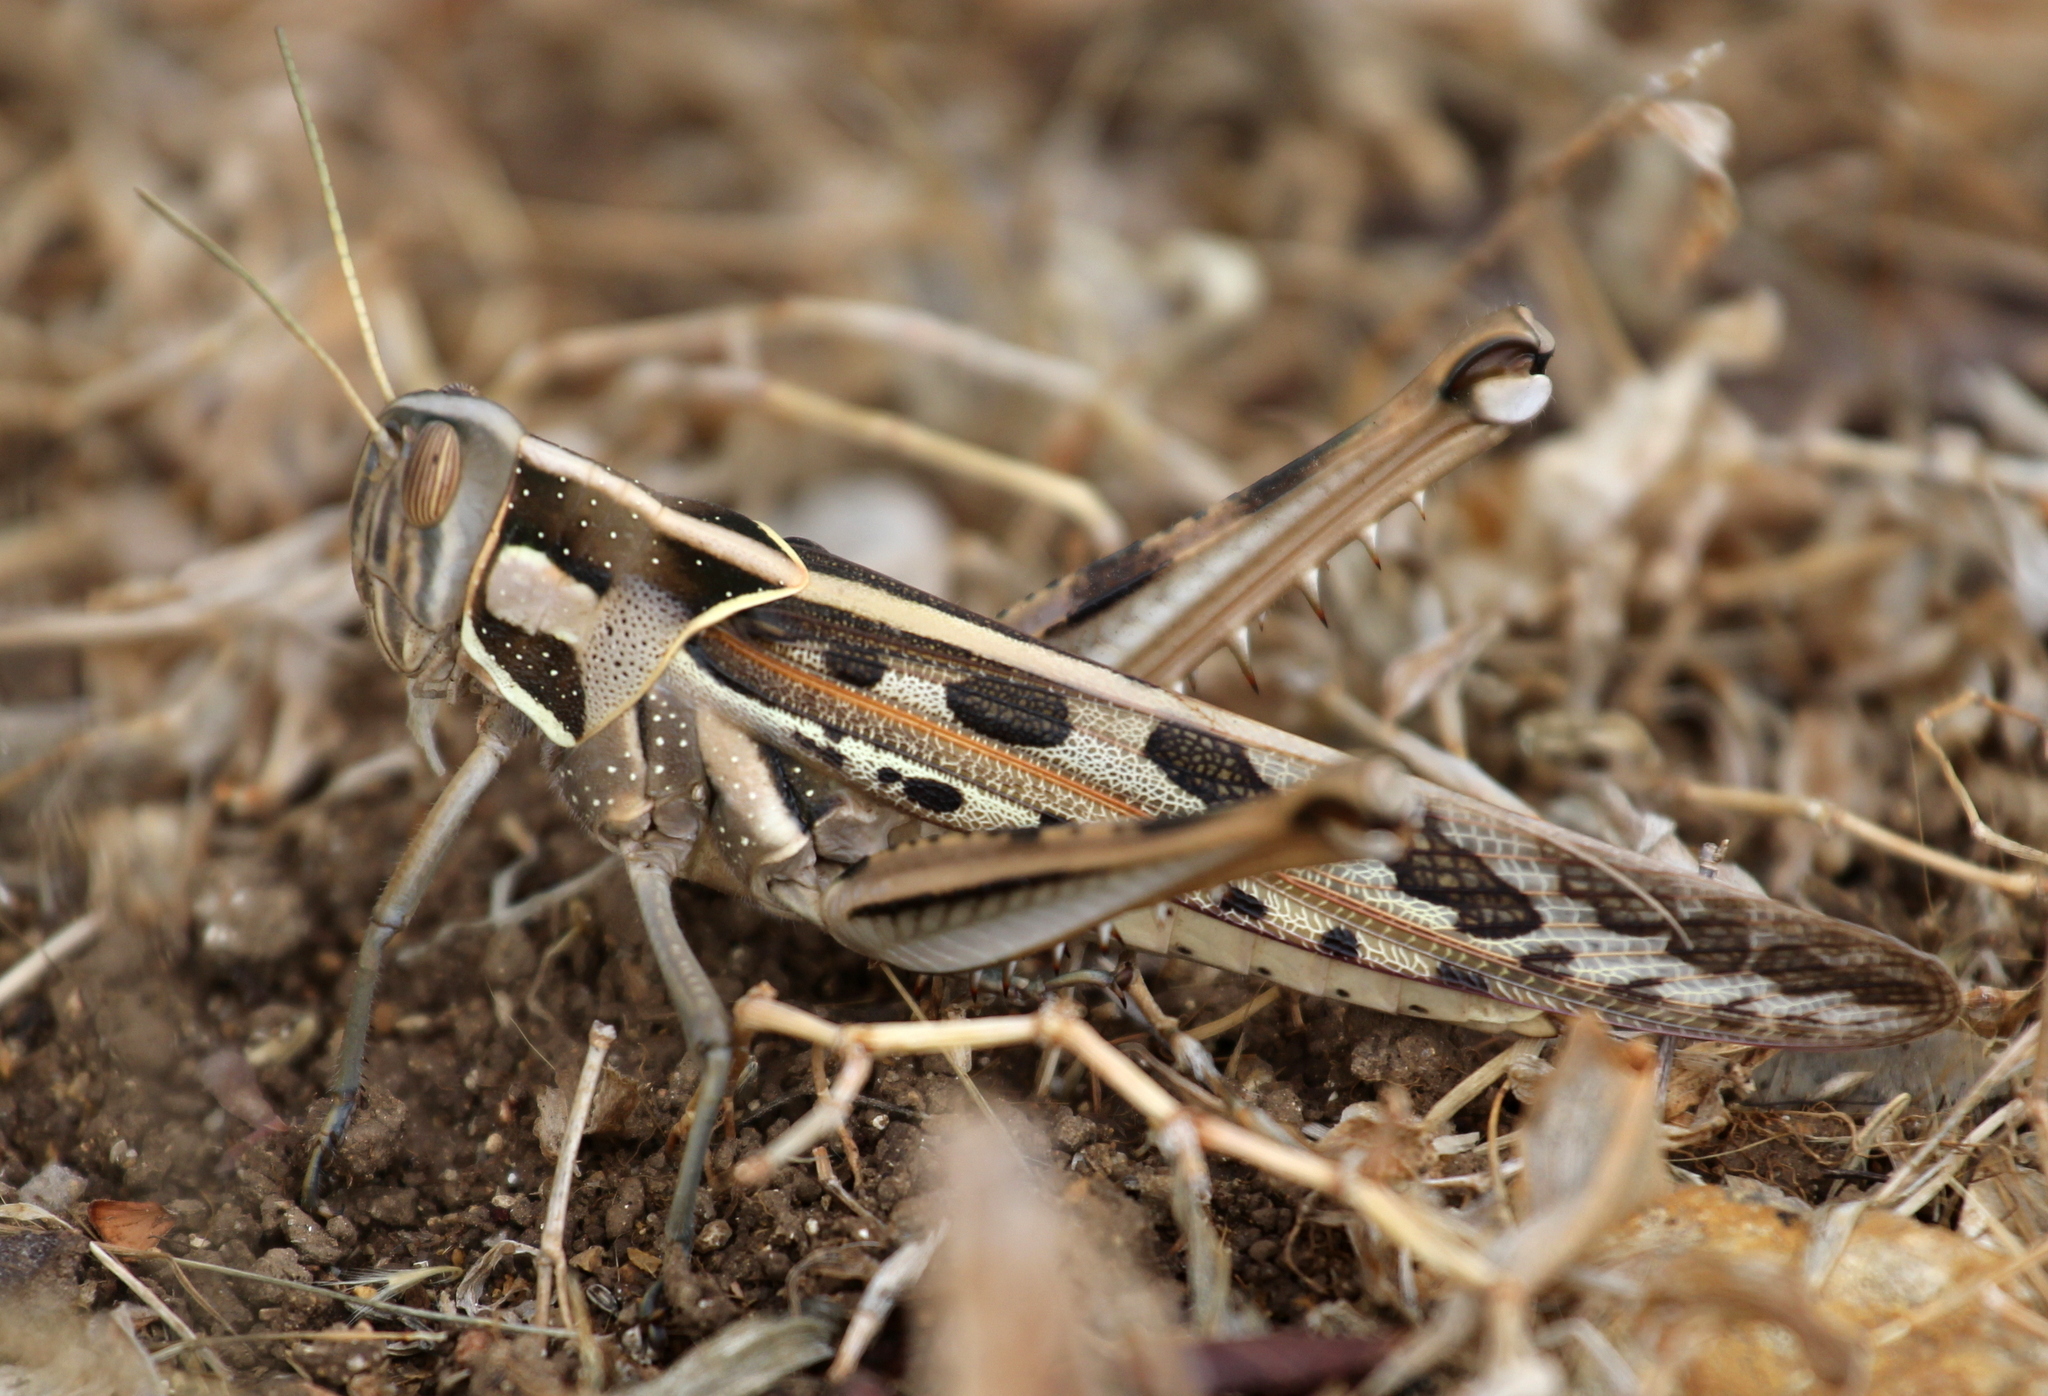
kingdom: Animalia
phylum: Arthropoda
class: Insecta
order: Orthoptera
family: Acrididae
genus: Cyrtacanthacris
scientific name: Cyrtacanthacris tatarica
